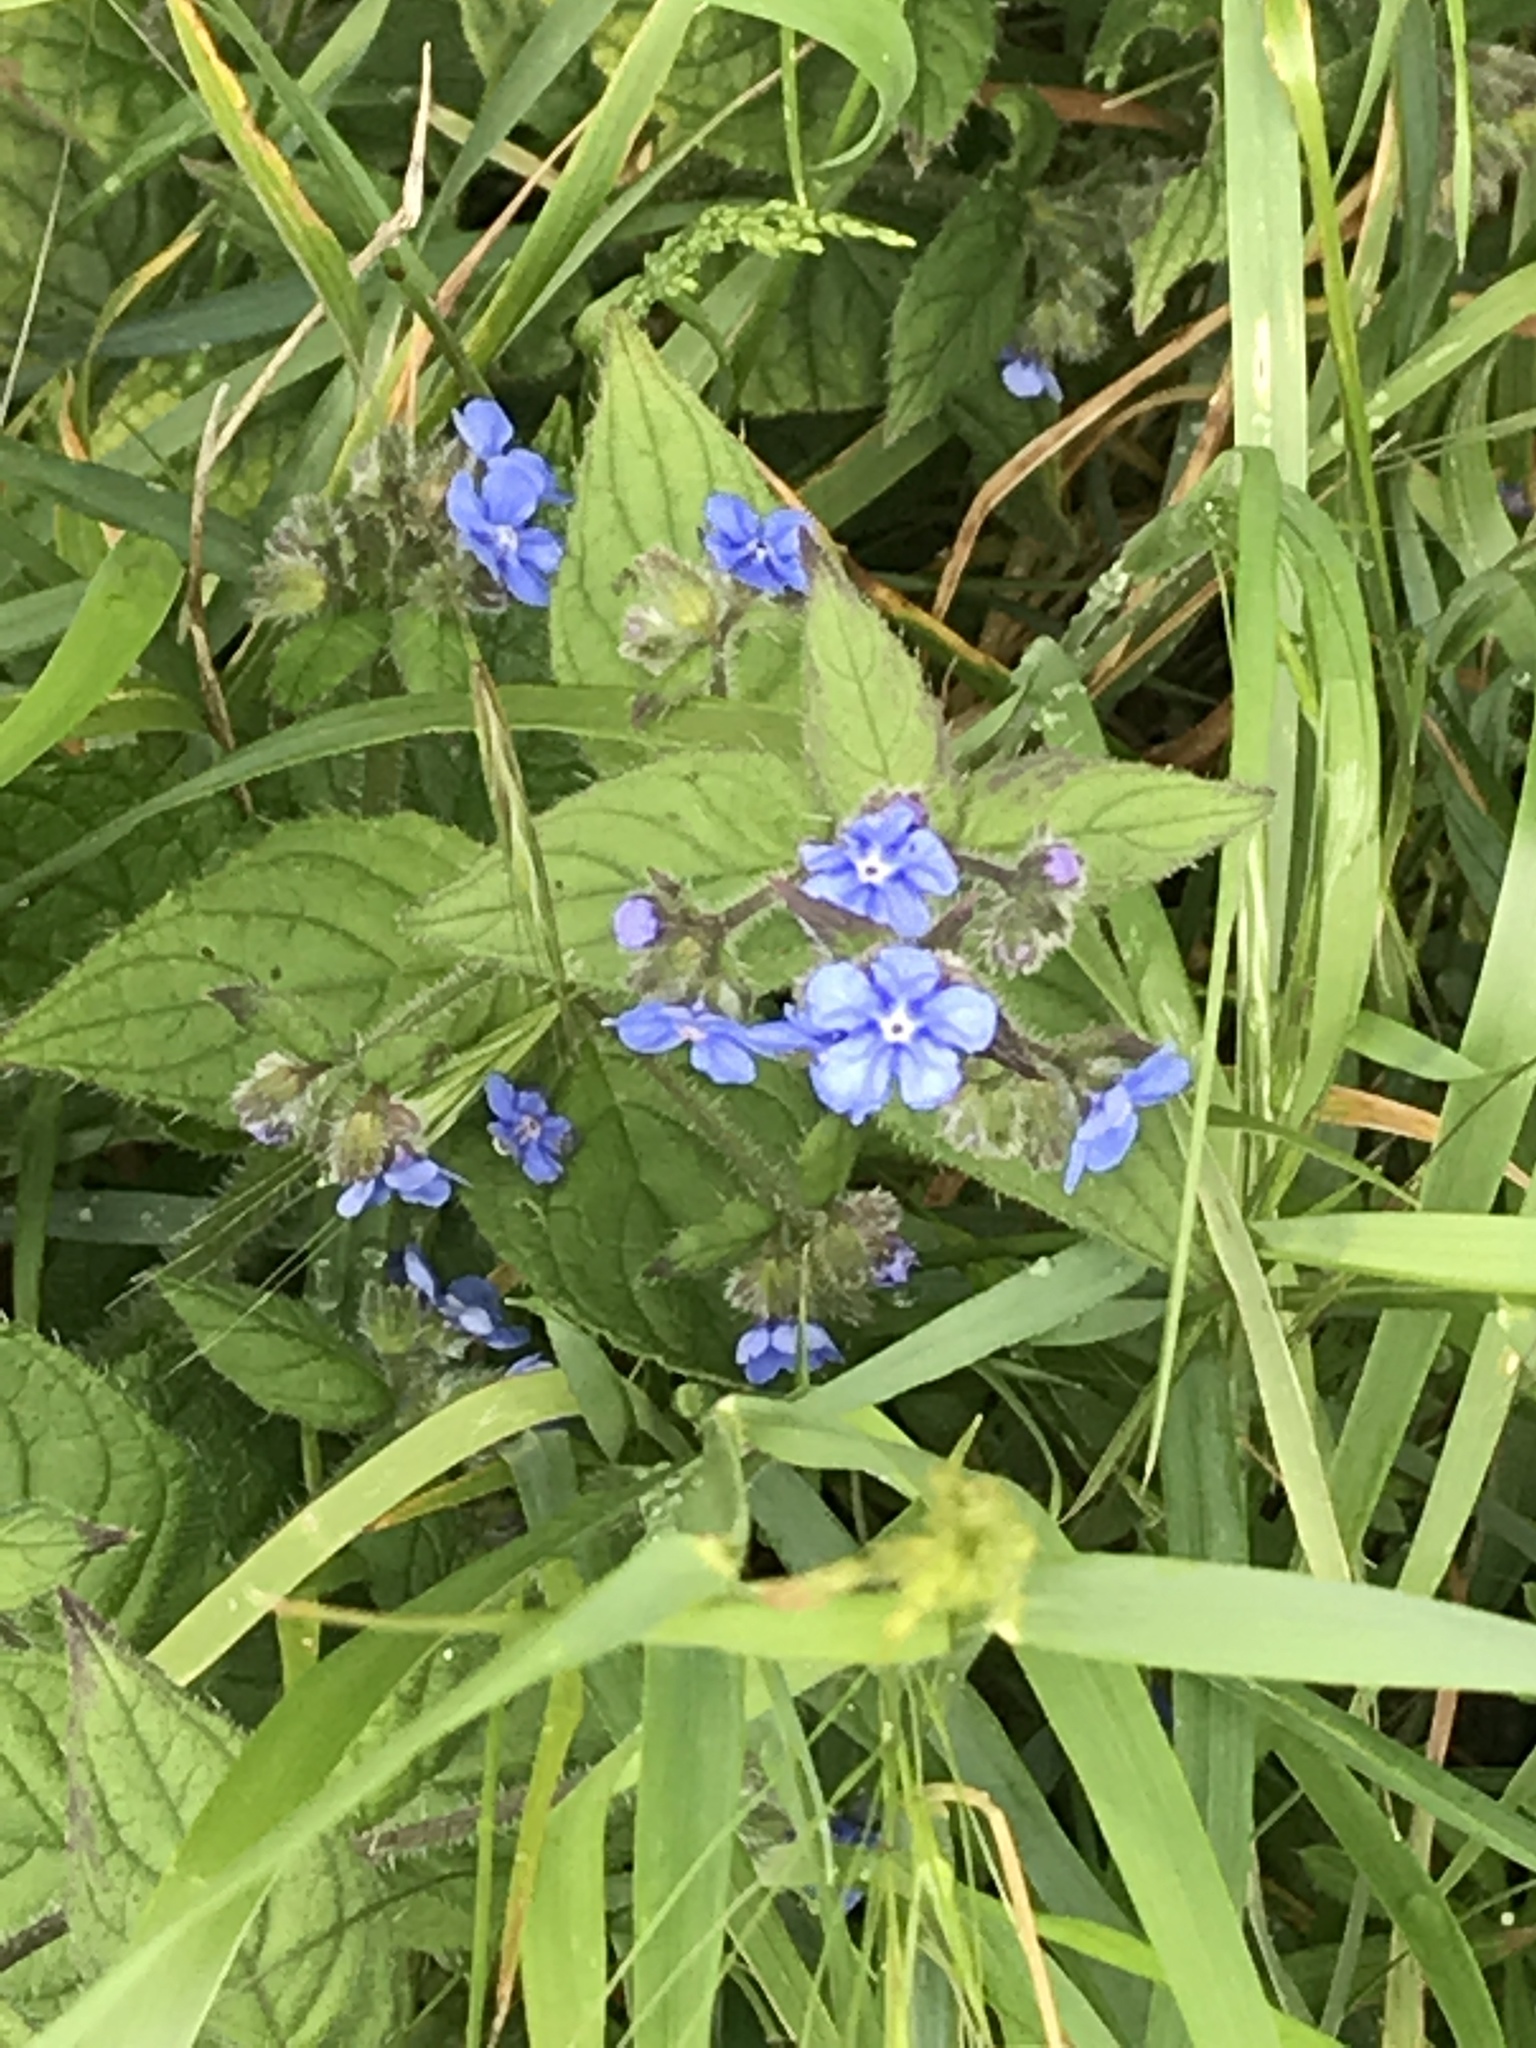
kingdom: Plantae
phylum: Tracheophyta
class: Magnoliopsida
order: Boraginales
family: Boraginaceae
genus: Pentaglottis
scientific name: Pentaglottis sempervirens
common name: Green alkanet
